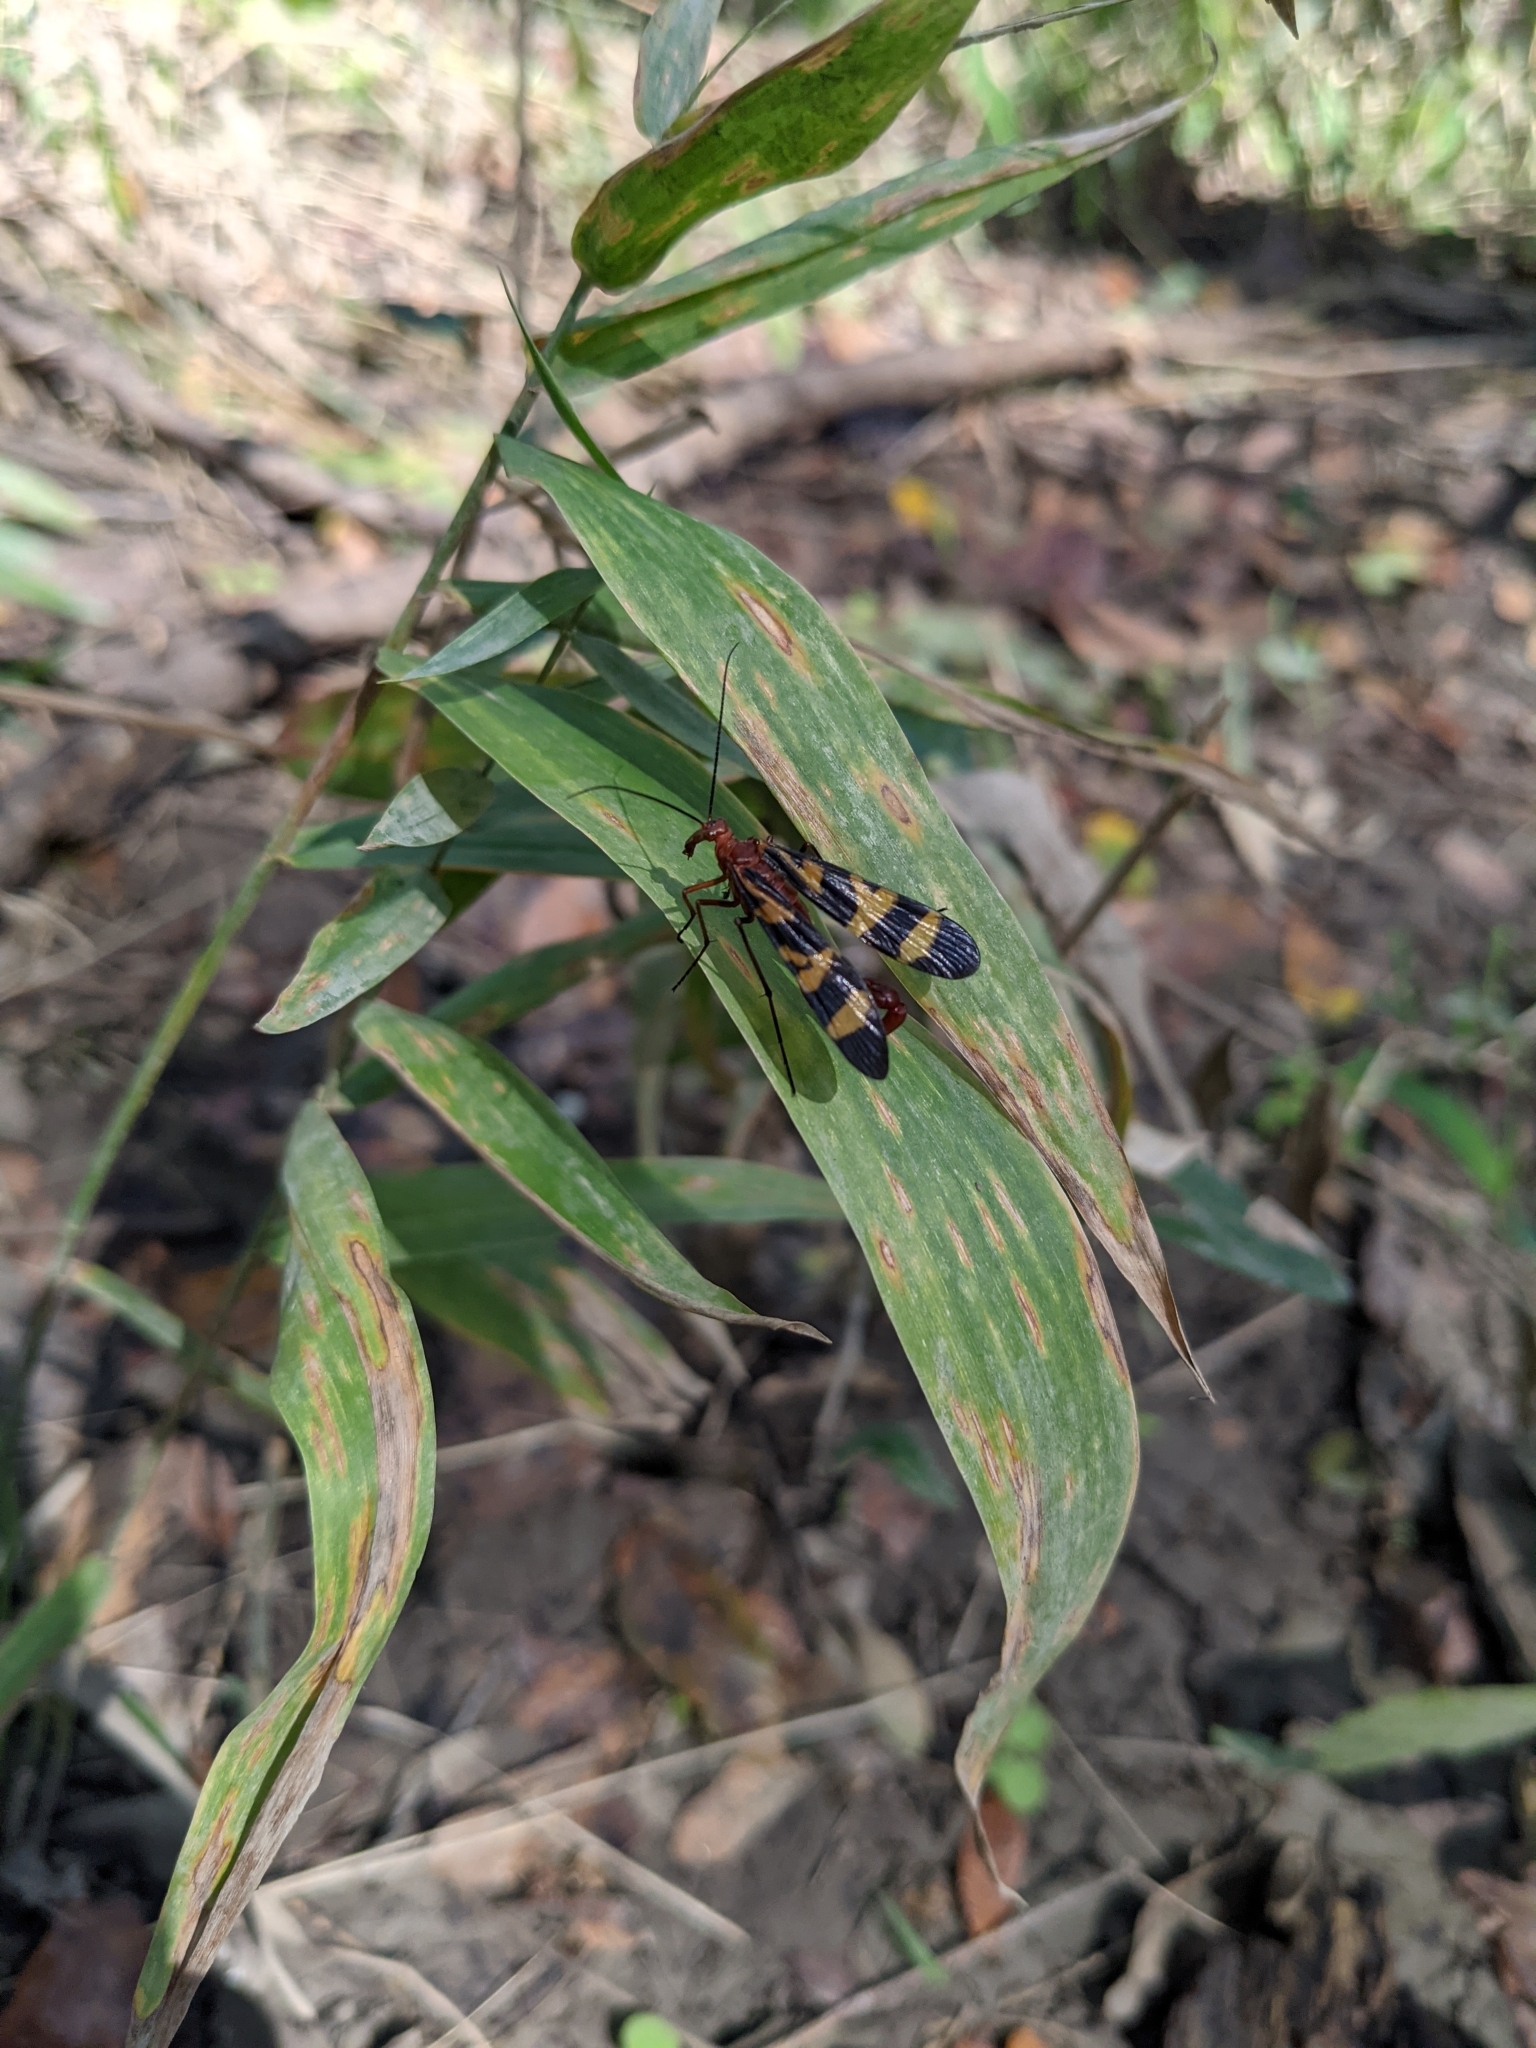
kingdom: Animalia
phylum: Arthropoda
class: Insecta
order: Mecoptera
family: Panorpidae
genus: Panorpa
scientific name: Panorpa nuptialis
